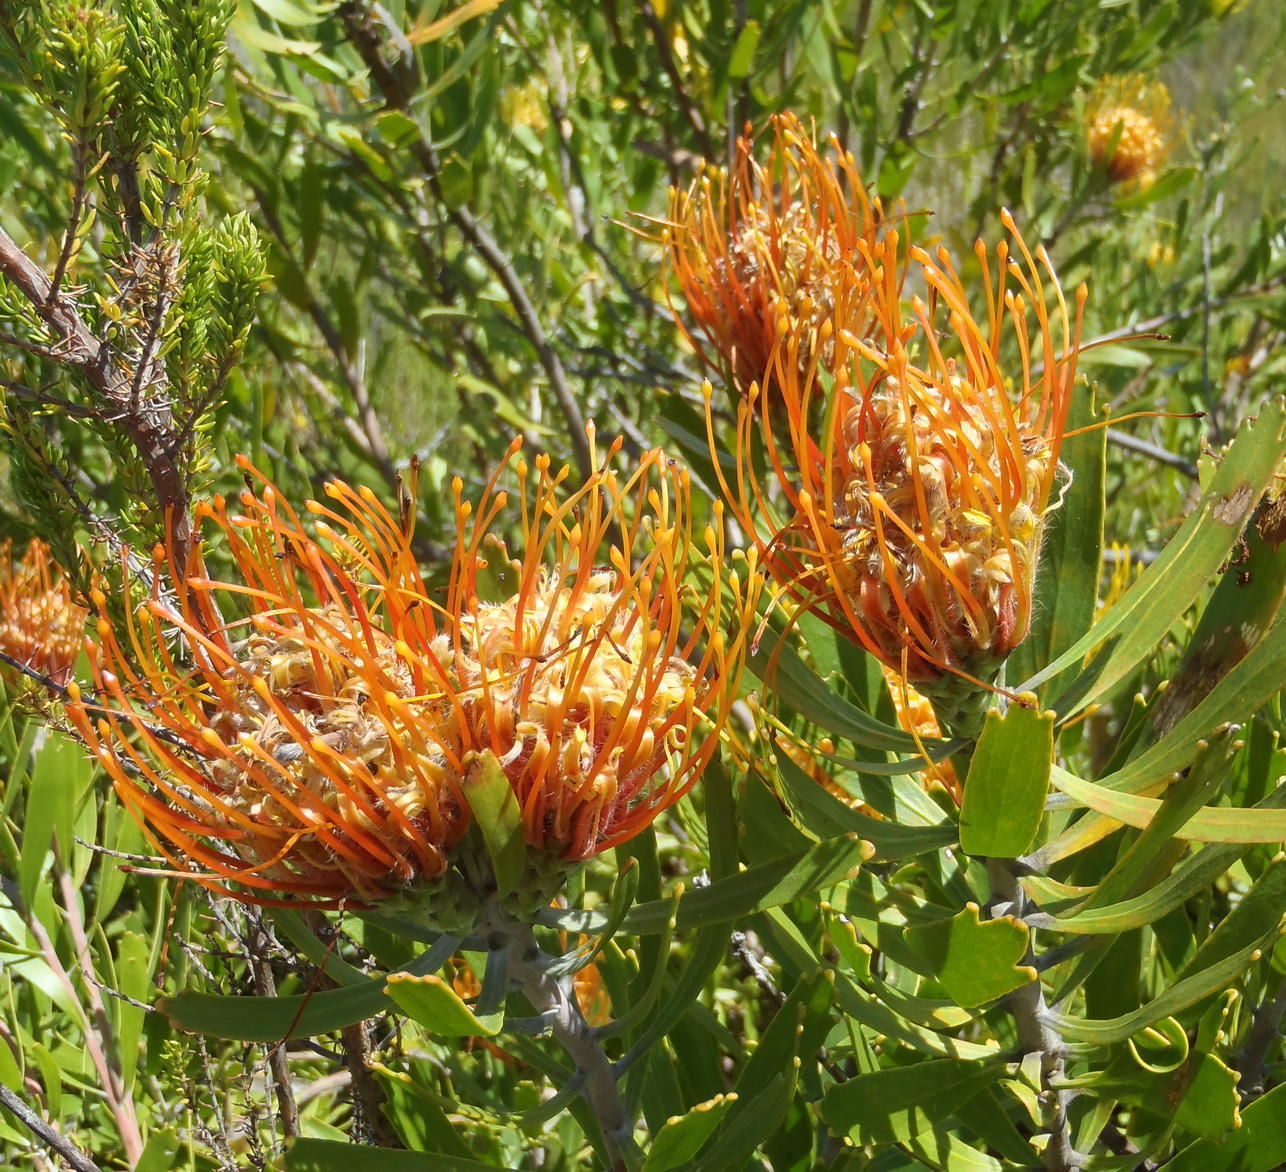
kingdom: Plantae
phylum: Tracheophyta
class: Magnoliopsida
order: Proteales
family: Proteaceae
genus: Leucospermum
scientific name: Leucospermum cuneiforme
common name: Common pincushion
